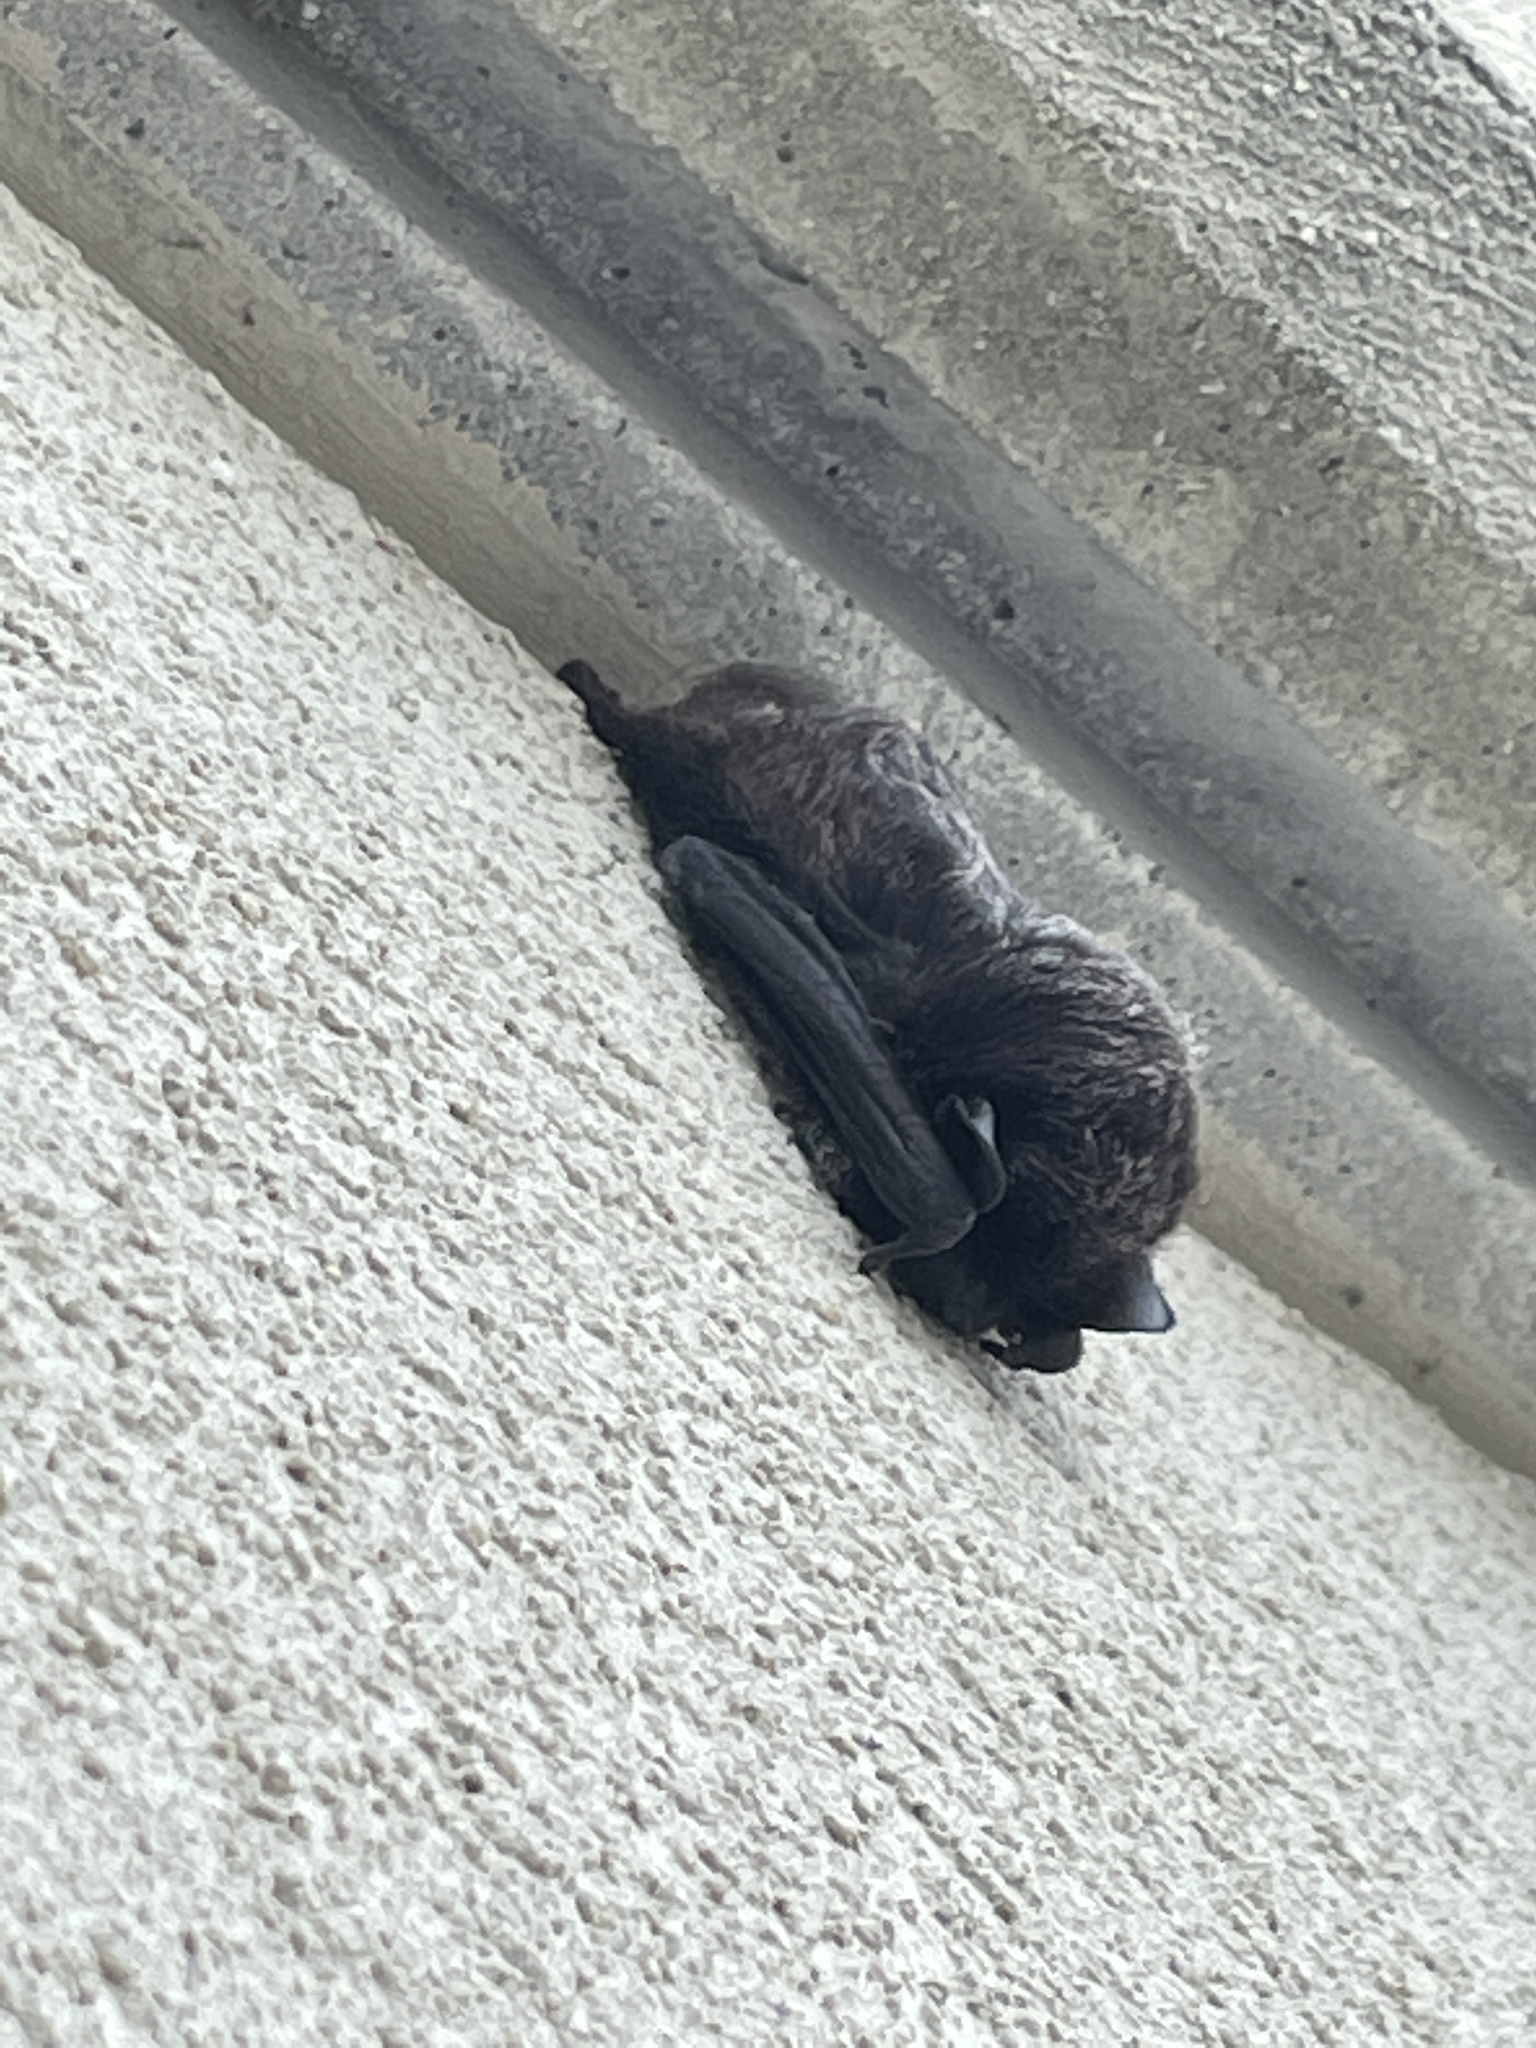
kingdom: Animalia
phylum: Chordata
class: Mammalia
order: Chiroptera
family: Vespertilionidae
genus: Lasionycteris
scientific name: Lasionycteris noctivagans
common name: Silver-haired bat
